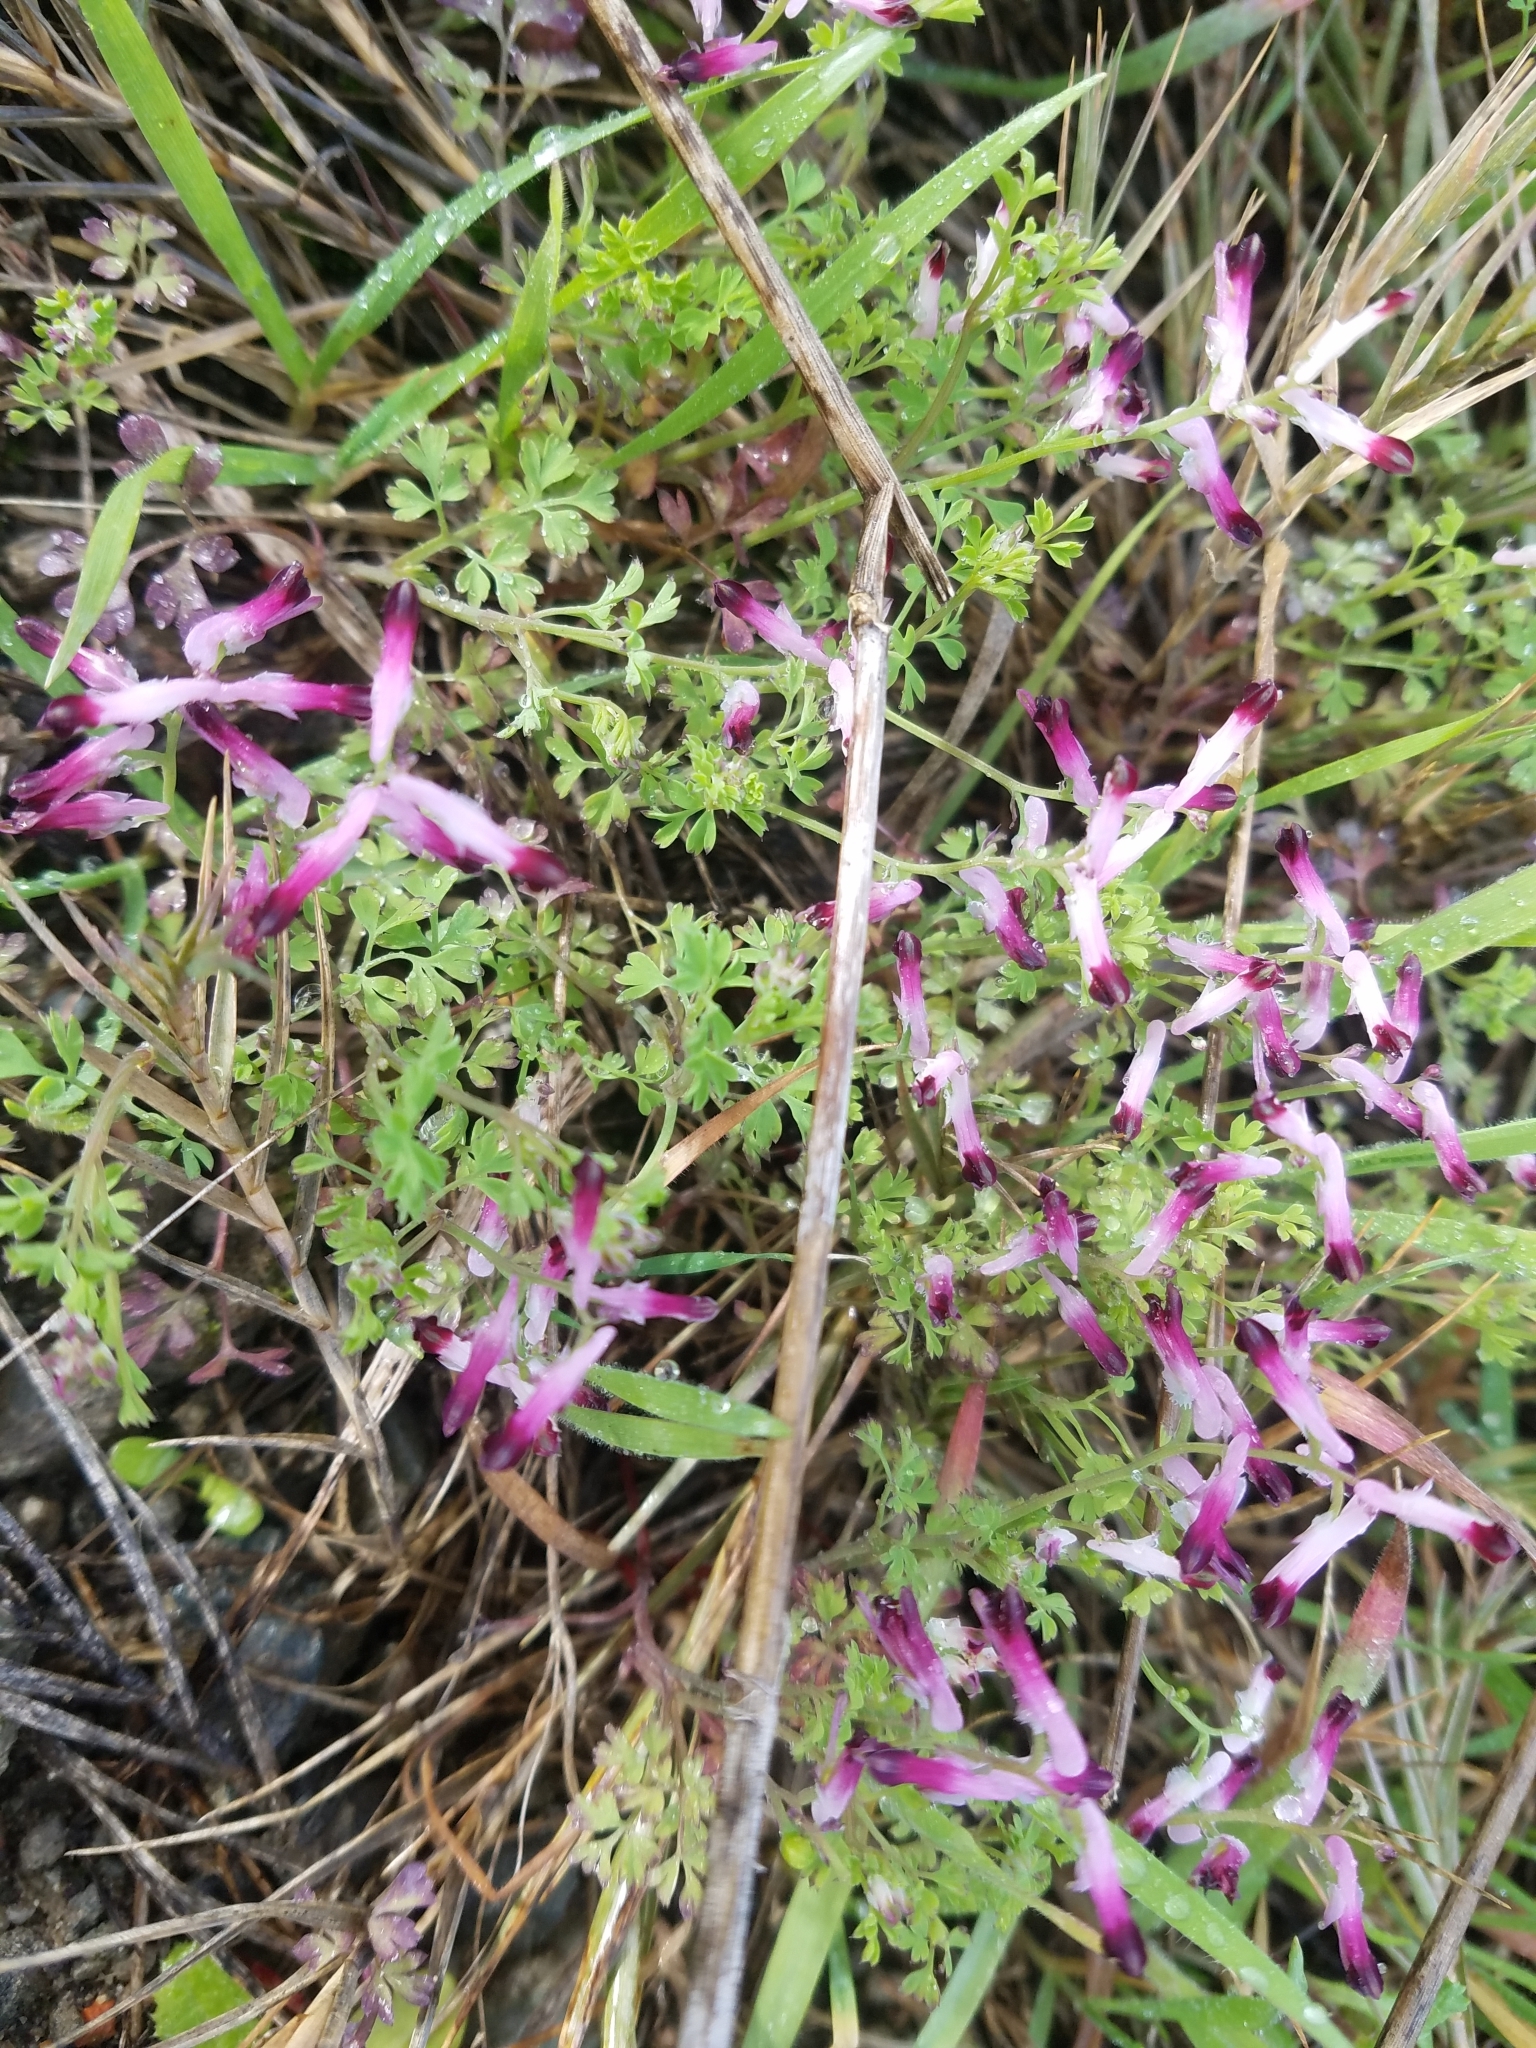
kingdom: Plantae
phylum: Tracheophyta
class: Magnoliopsida
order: Ranunculales
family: Papaveraceae
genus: Fumaria
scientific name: Fumaria muralis
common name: Common ramping-fumitory
